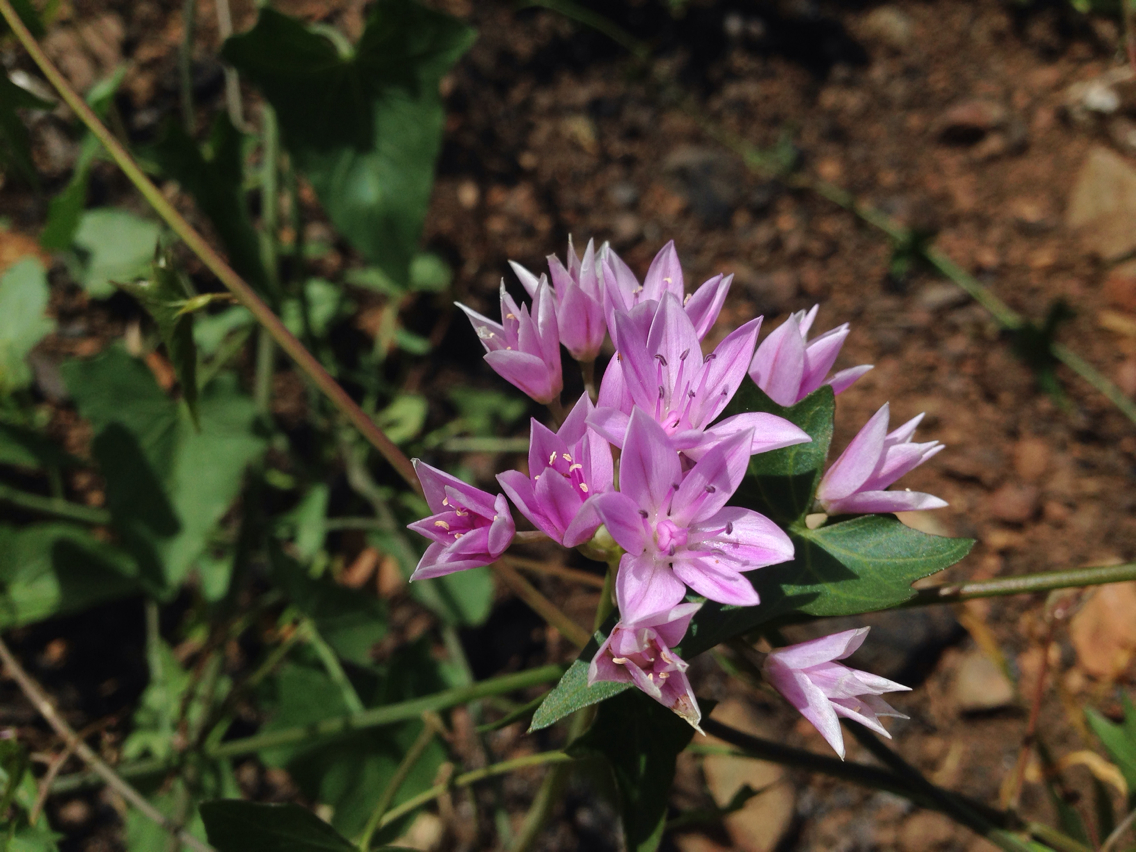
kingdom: Plantae
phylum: Tracheophyta
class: Liliopsida
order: Asparagales
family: Amaryllidaceae
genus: Allium
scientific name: Allium unifolium
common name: American garlic
